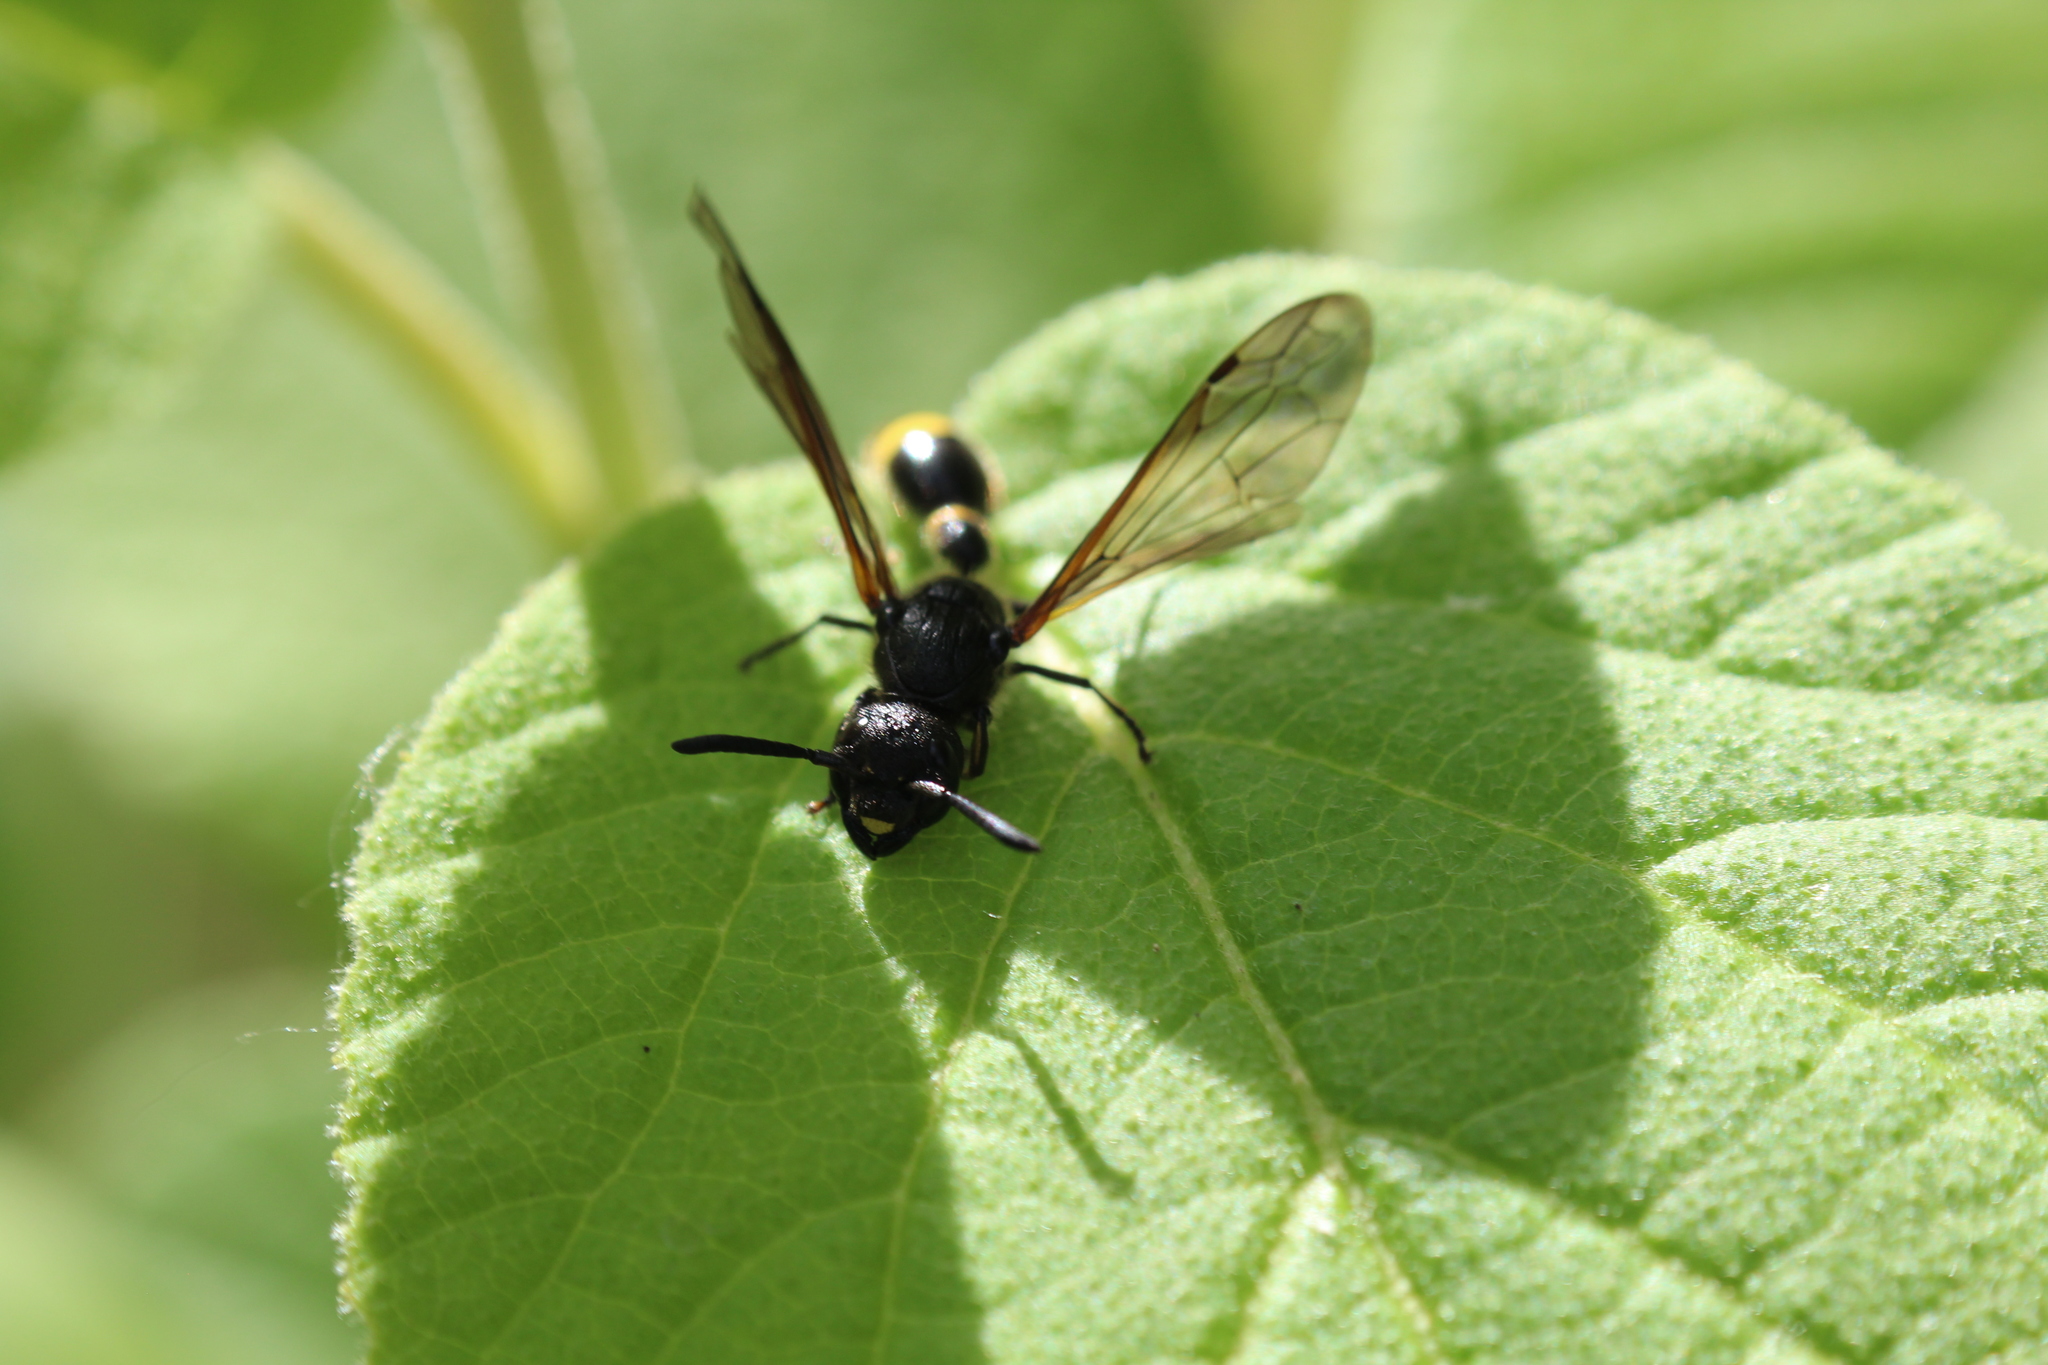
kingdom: Animalia
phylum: Arthropoda
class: Insecta
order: Hymenoptera
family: Eumenidae
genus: Discoelius
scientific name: Discoelius zonalis
